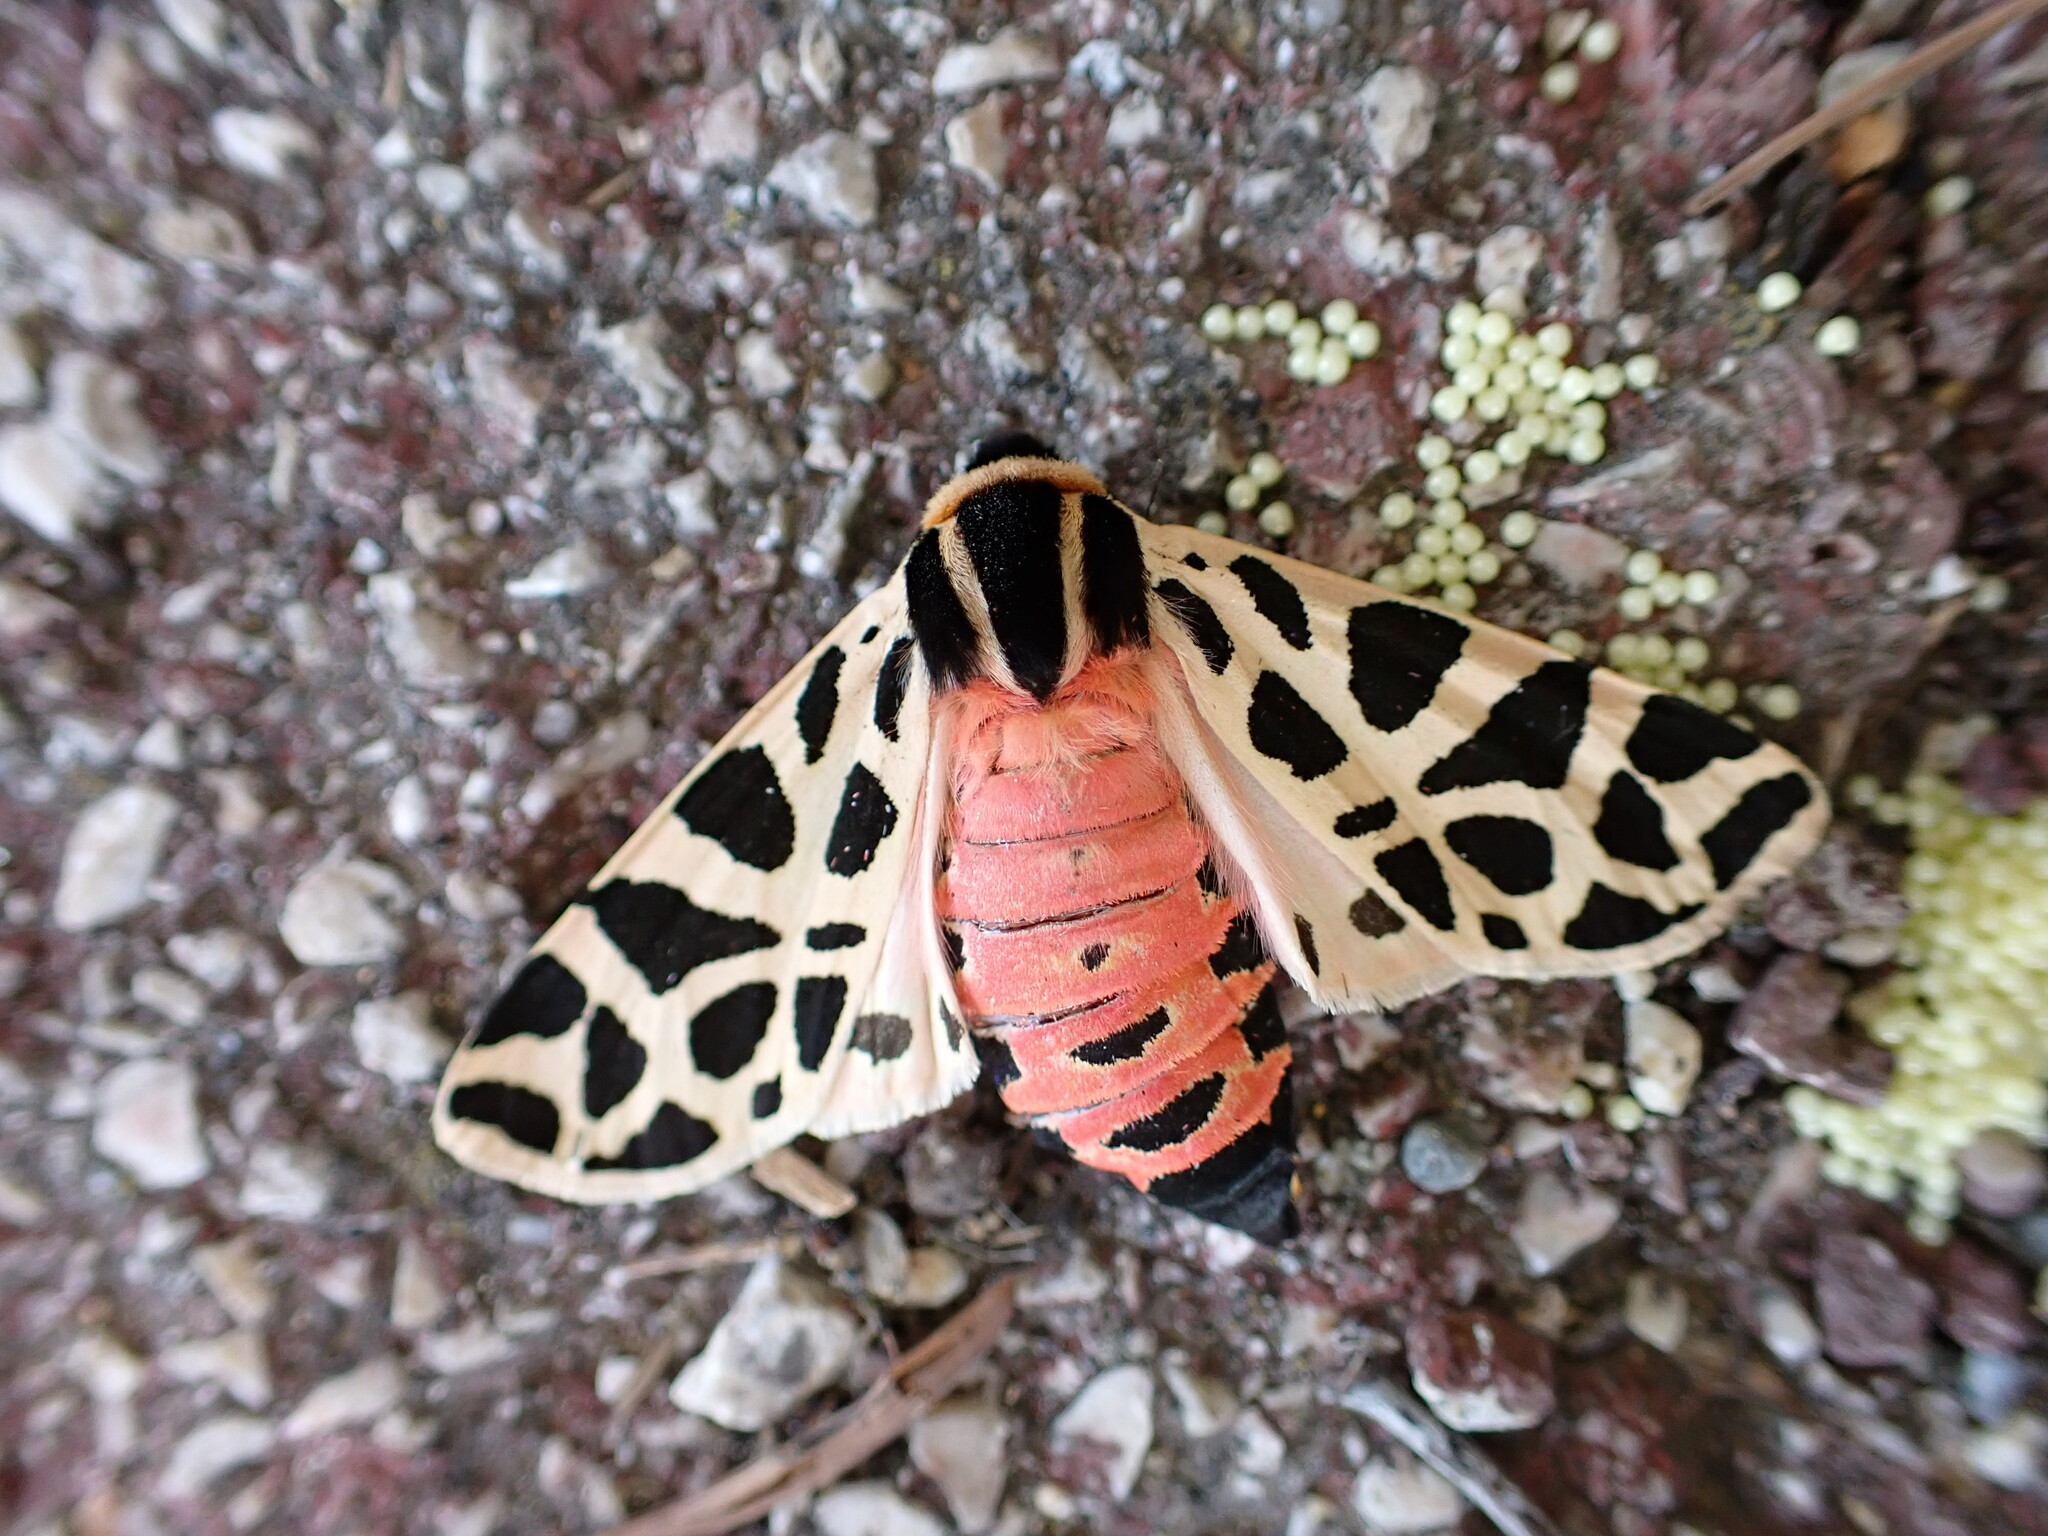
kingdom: Animalia
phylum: Arthropoda
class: Insecta
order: Lepidoptera
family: Erebidae
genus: Cymbalophora
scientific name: Cymbalophora pudica
